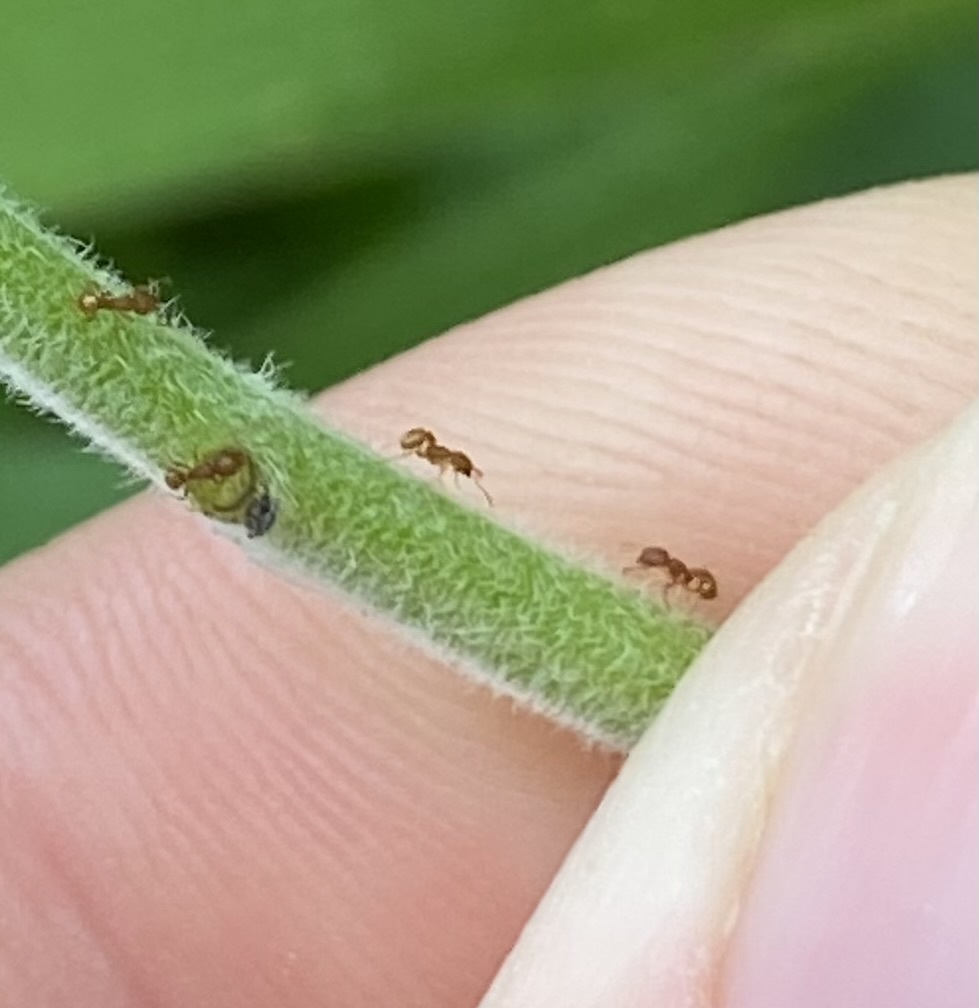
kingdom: Animalia
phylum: Arthropoda
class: Insecta
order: Hymenoptera
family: Formicidae
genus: Wasmannia
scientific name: Wasmannia auropunctata
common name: Little fire ant
